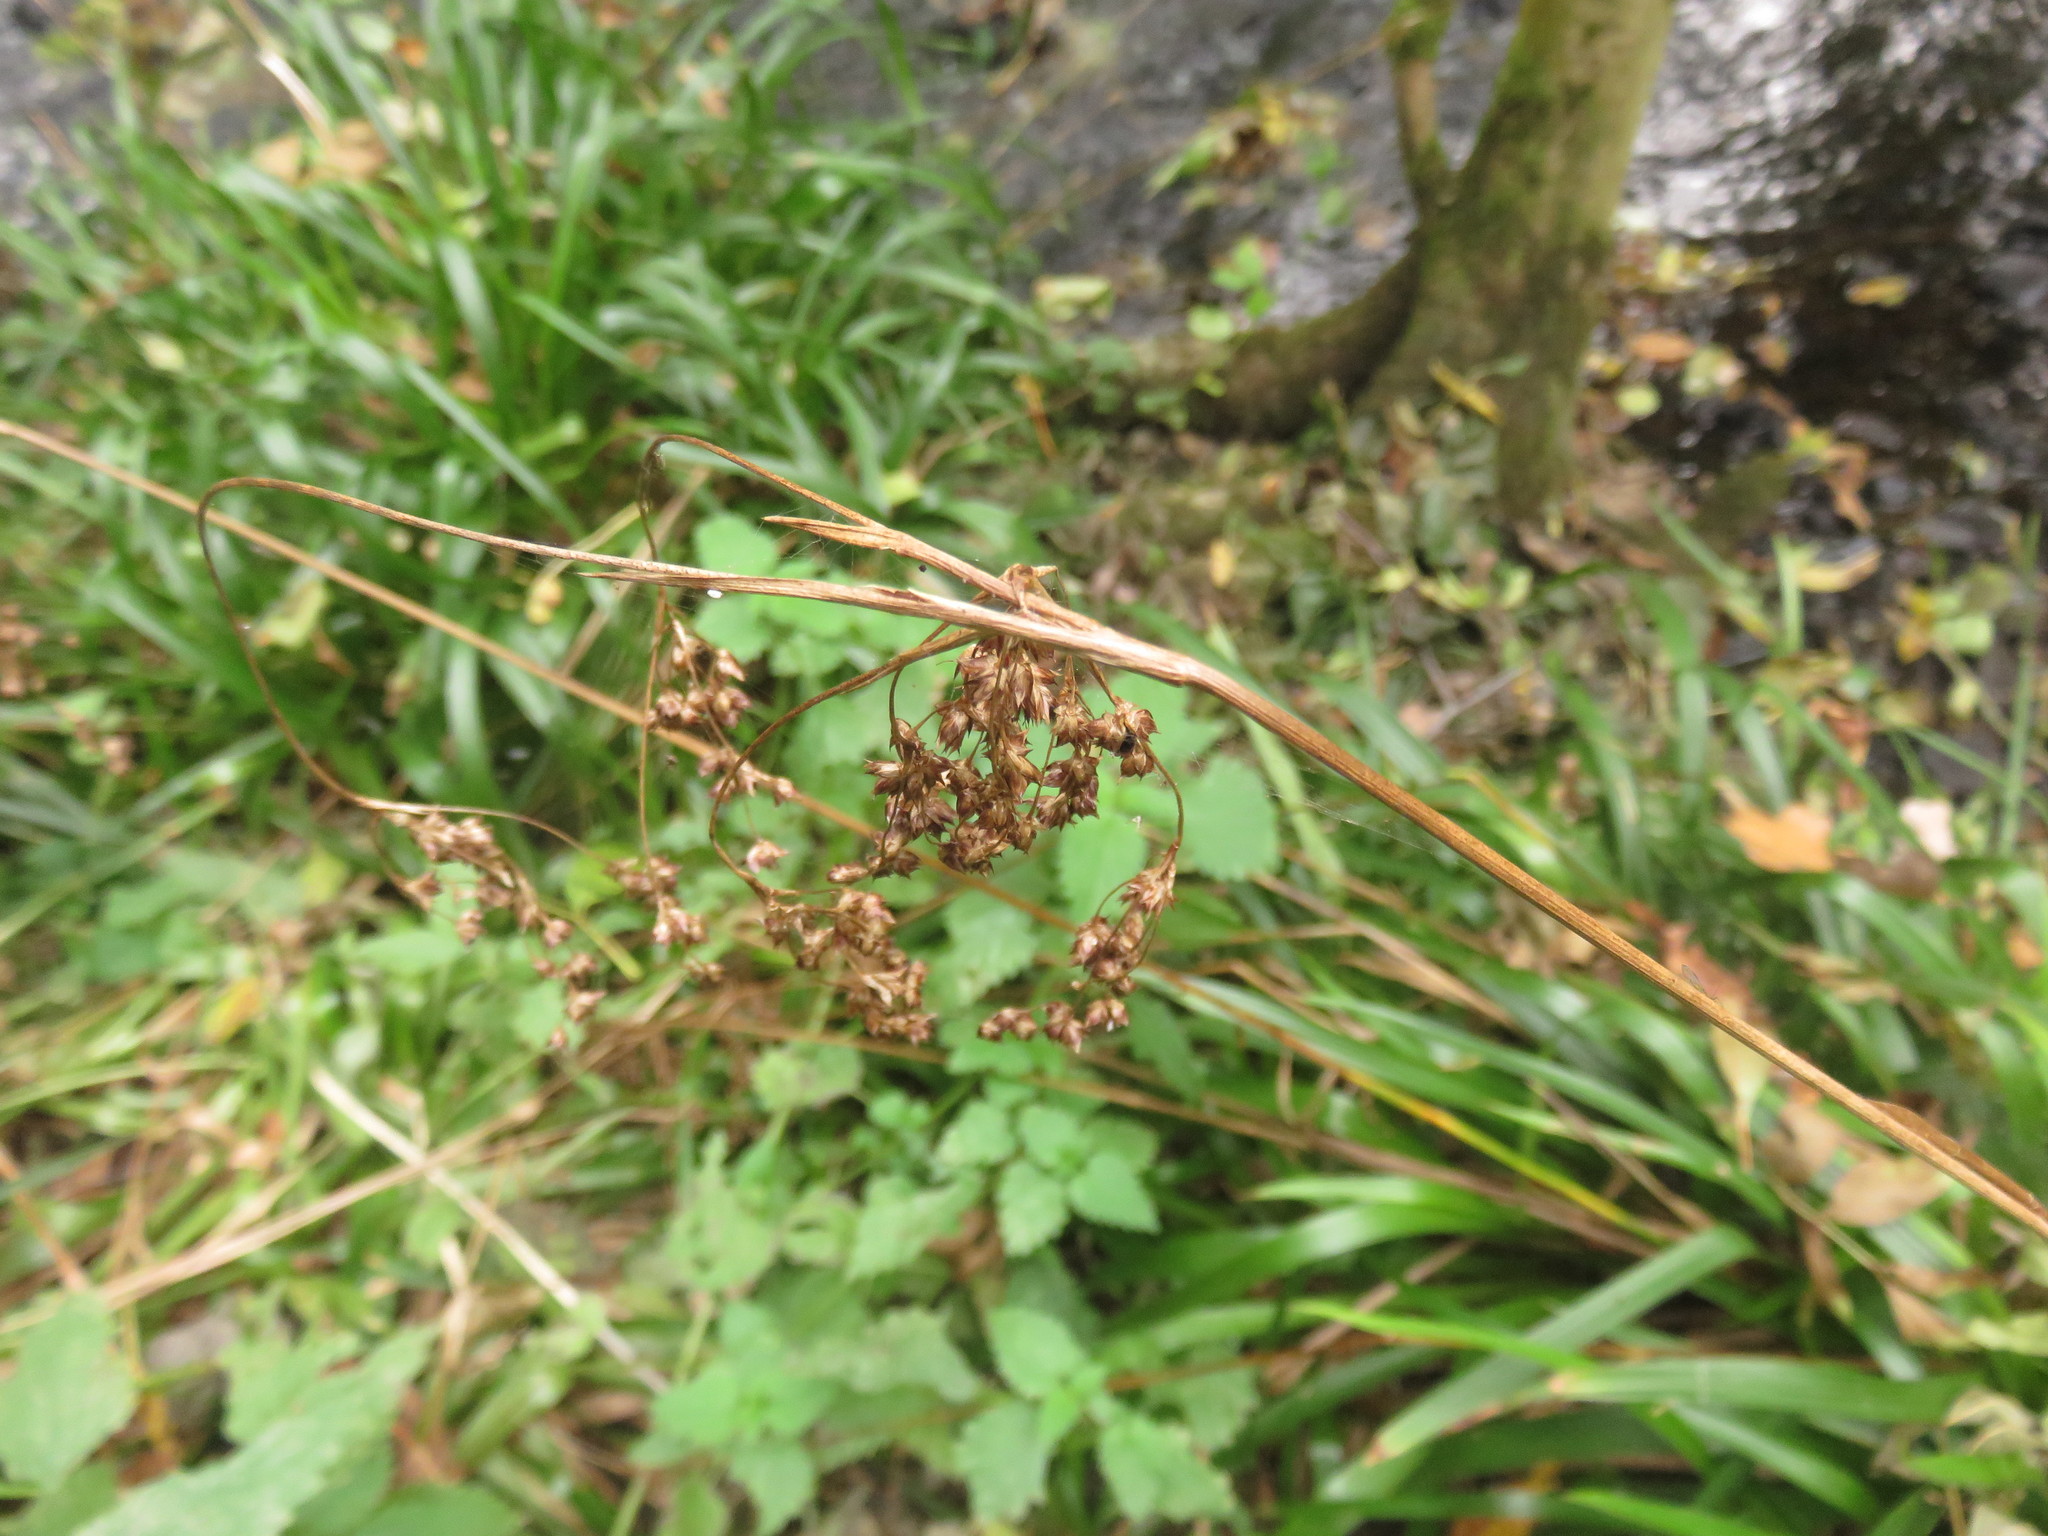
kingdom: Plantae
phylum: Tracheophyta
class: Liliopsida
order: Poales
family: Juncaceae
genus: Luzula
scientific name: Luzula sylvatica
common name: Great wood-rush
